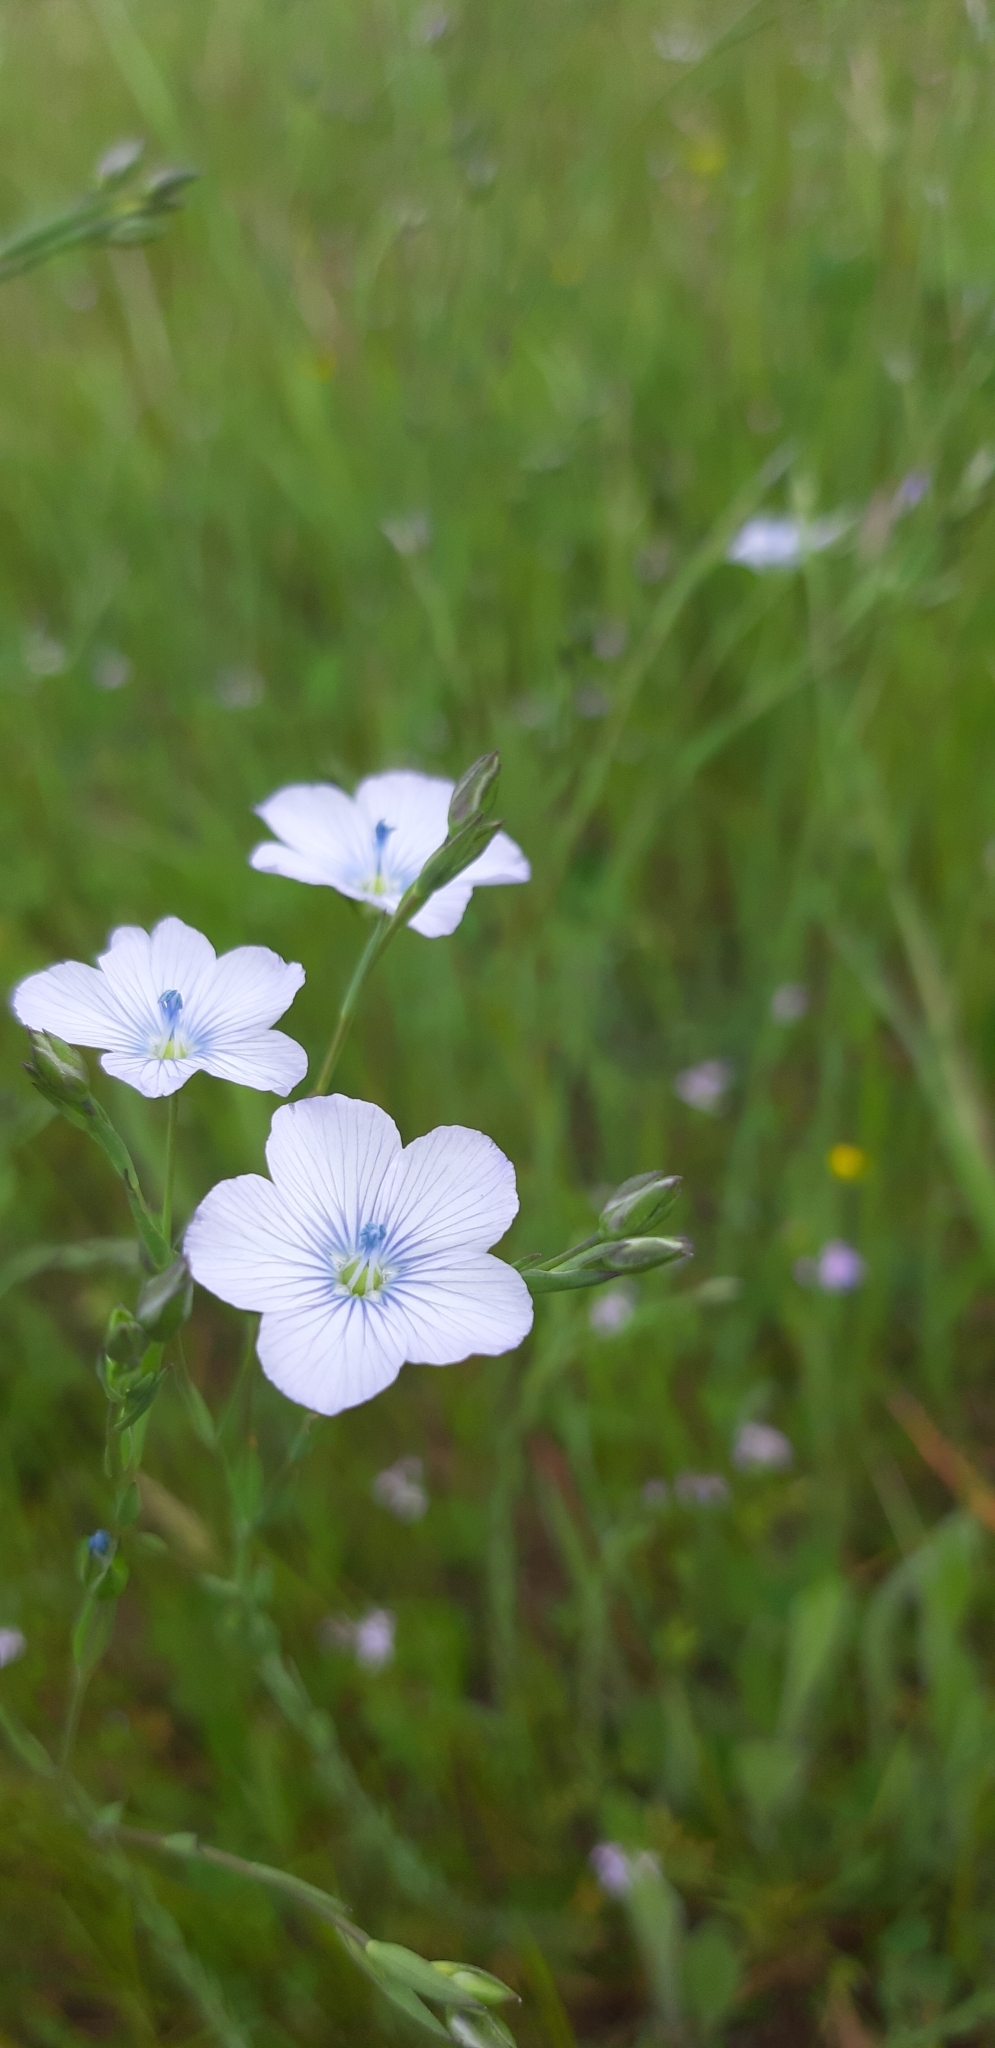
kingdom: Plantae
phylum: Tracheophyta
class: Magnoliopsida
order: Malpighiales
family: Linaceae
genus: Linum
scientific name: Linum bienne
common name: Pale flax
